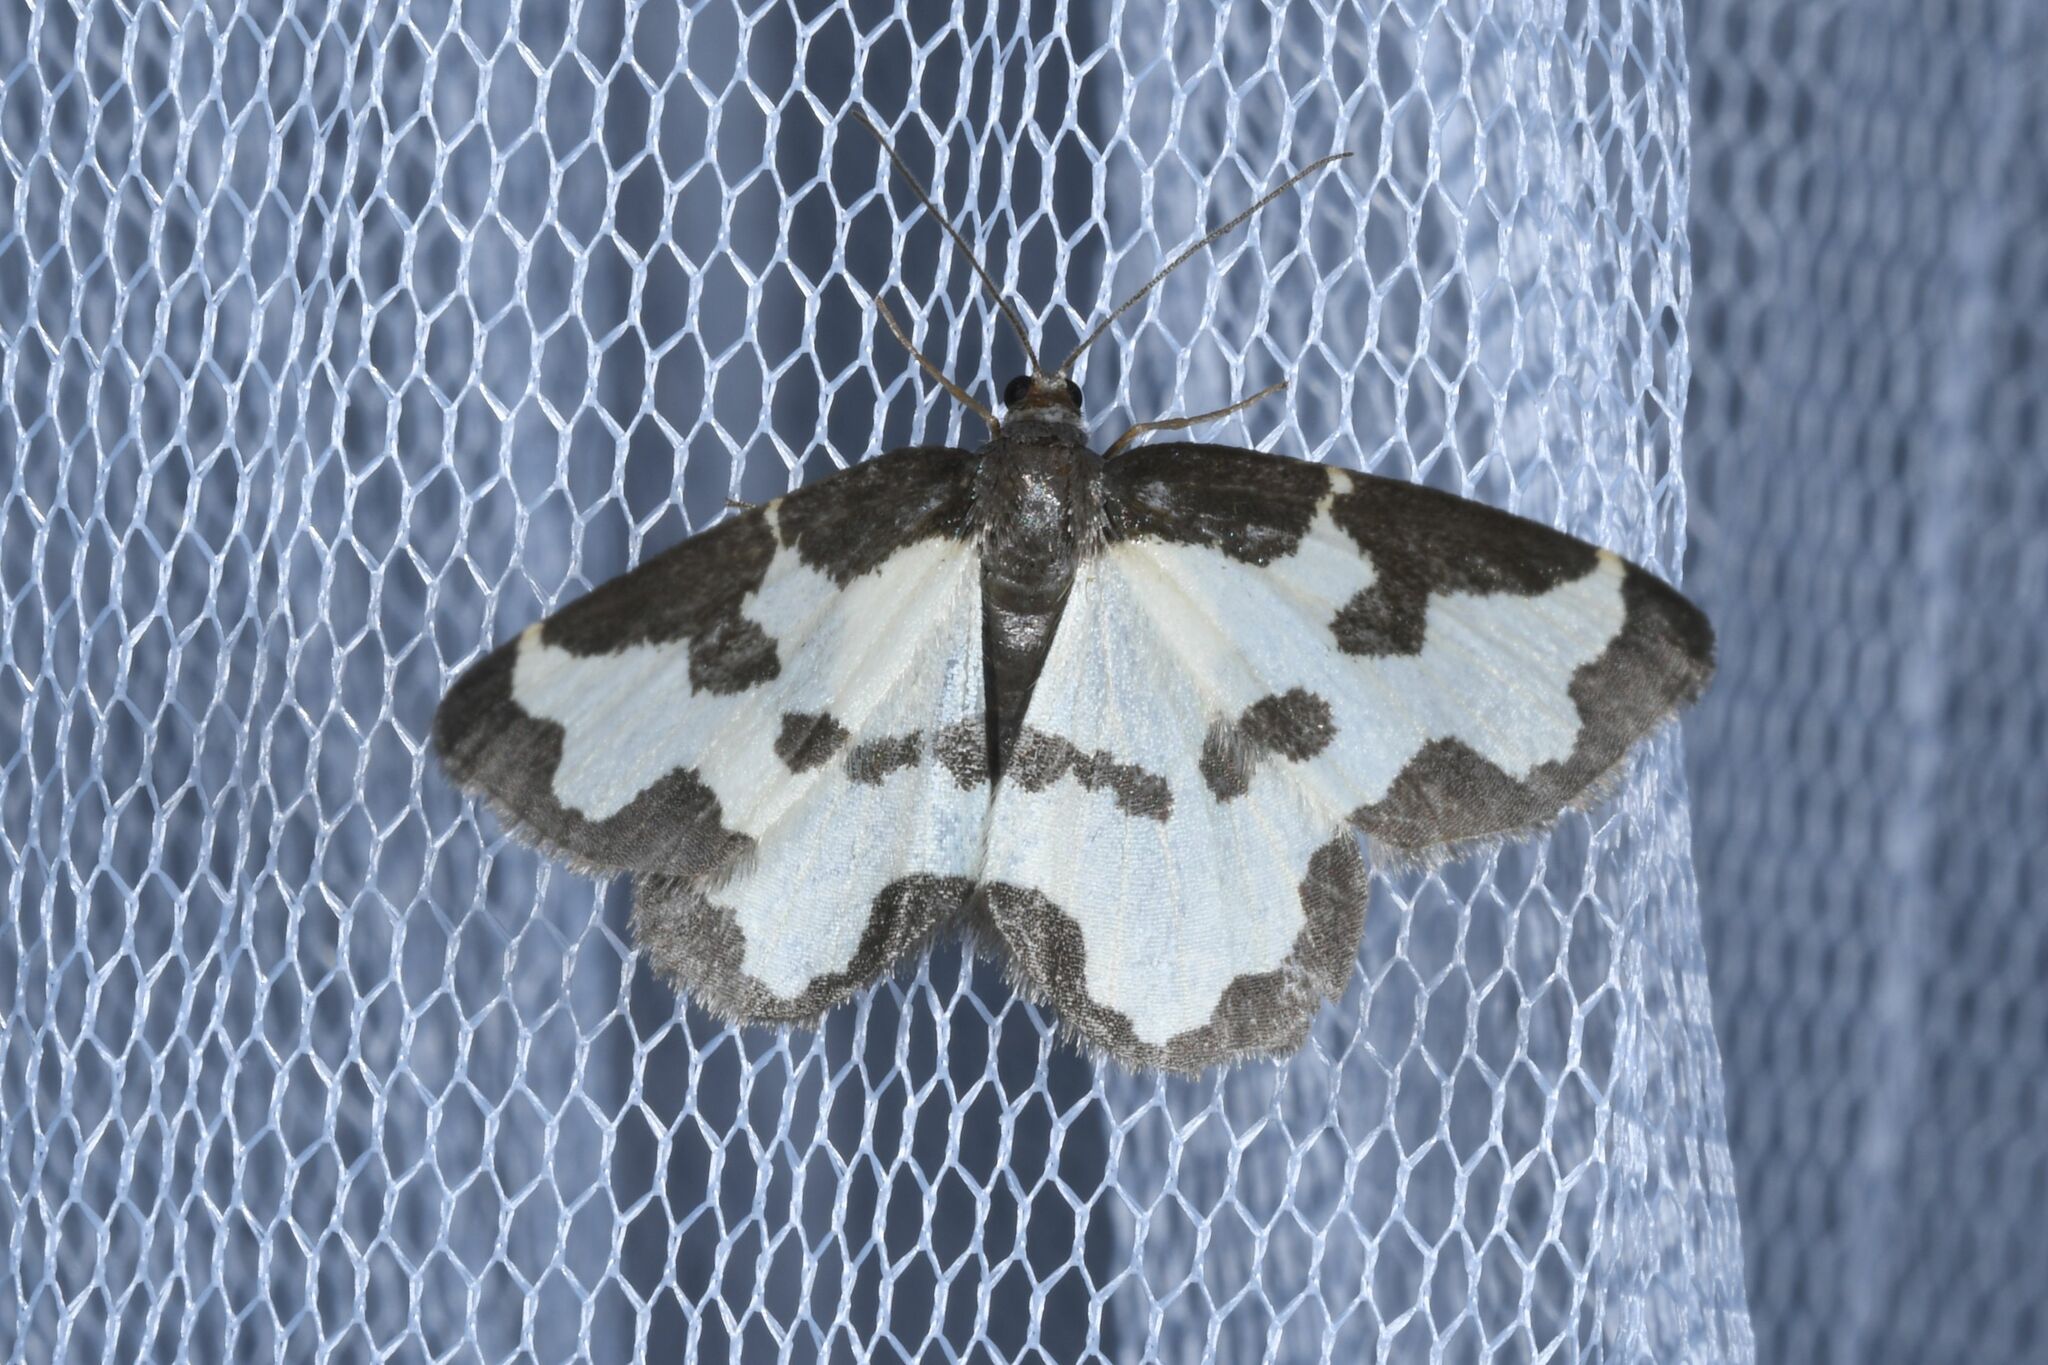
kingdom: Animalia
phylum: Arthropoda
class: Insecta
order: Lepidoptera
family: Geometridae
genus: Lomaspilis
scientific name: Lomaspilis marginata
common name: Clouded border
